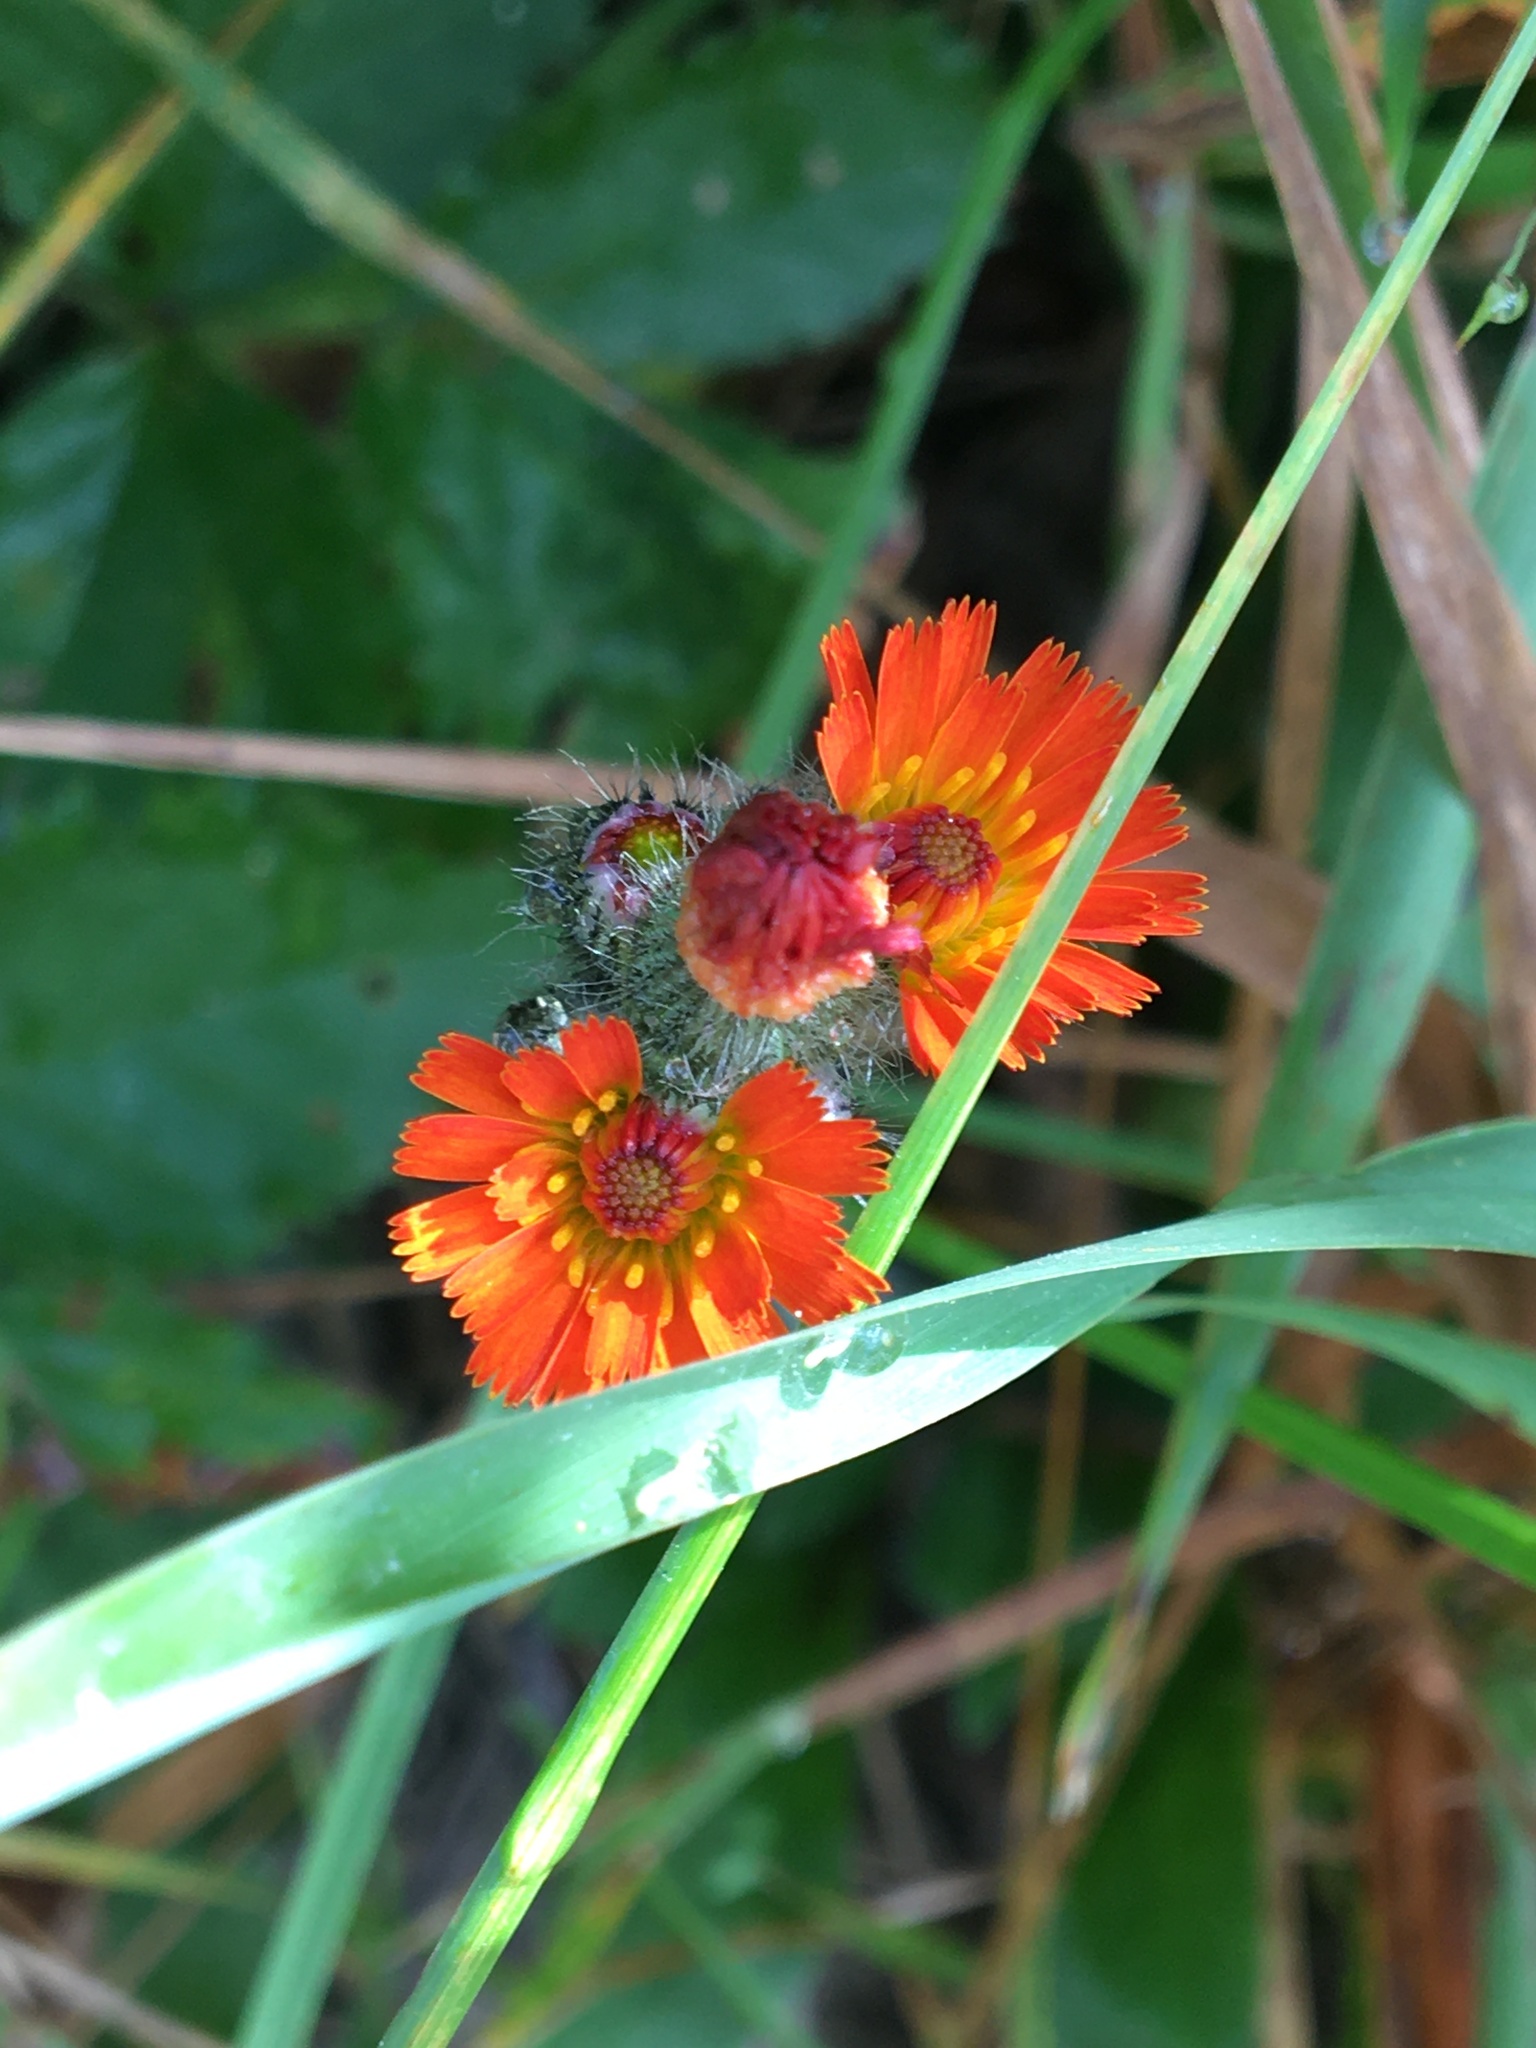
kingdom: Plantae
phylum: Tracheophyta
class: Magnoliopsida
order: Asterales
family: Asteraceae
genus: Pilosella
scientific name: Pilosella aurantiaca
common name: Fox-and-cubs
